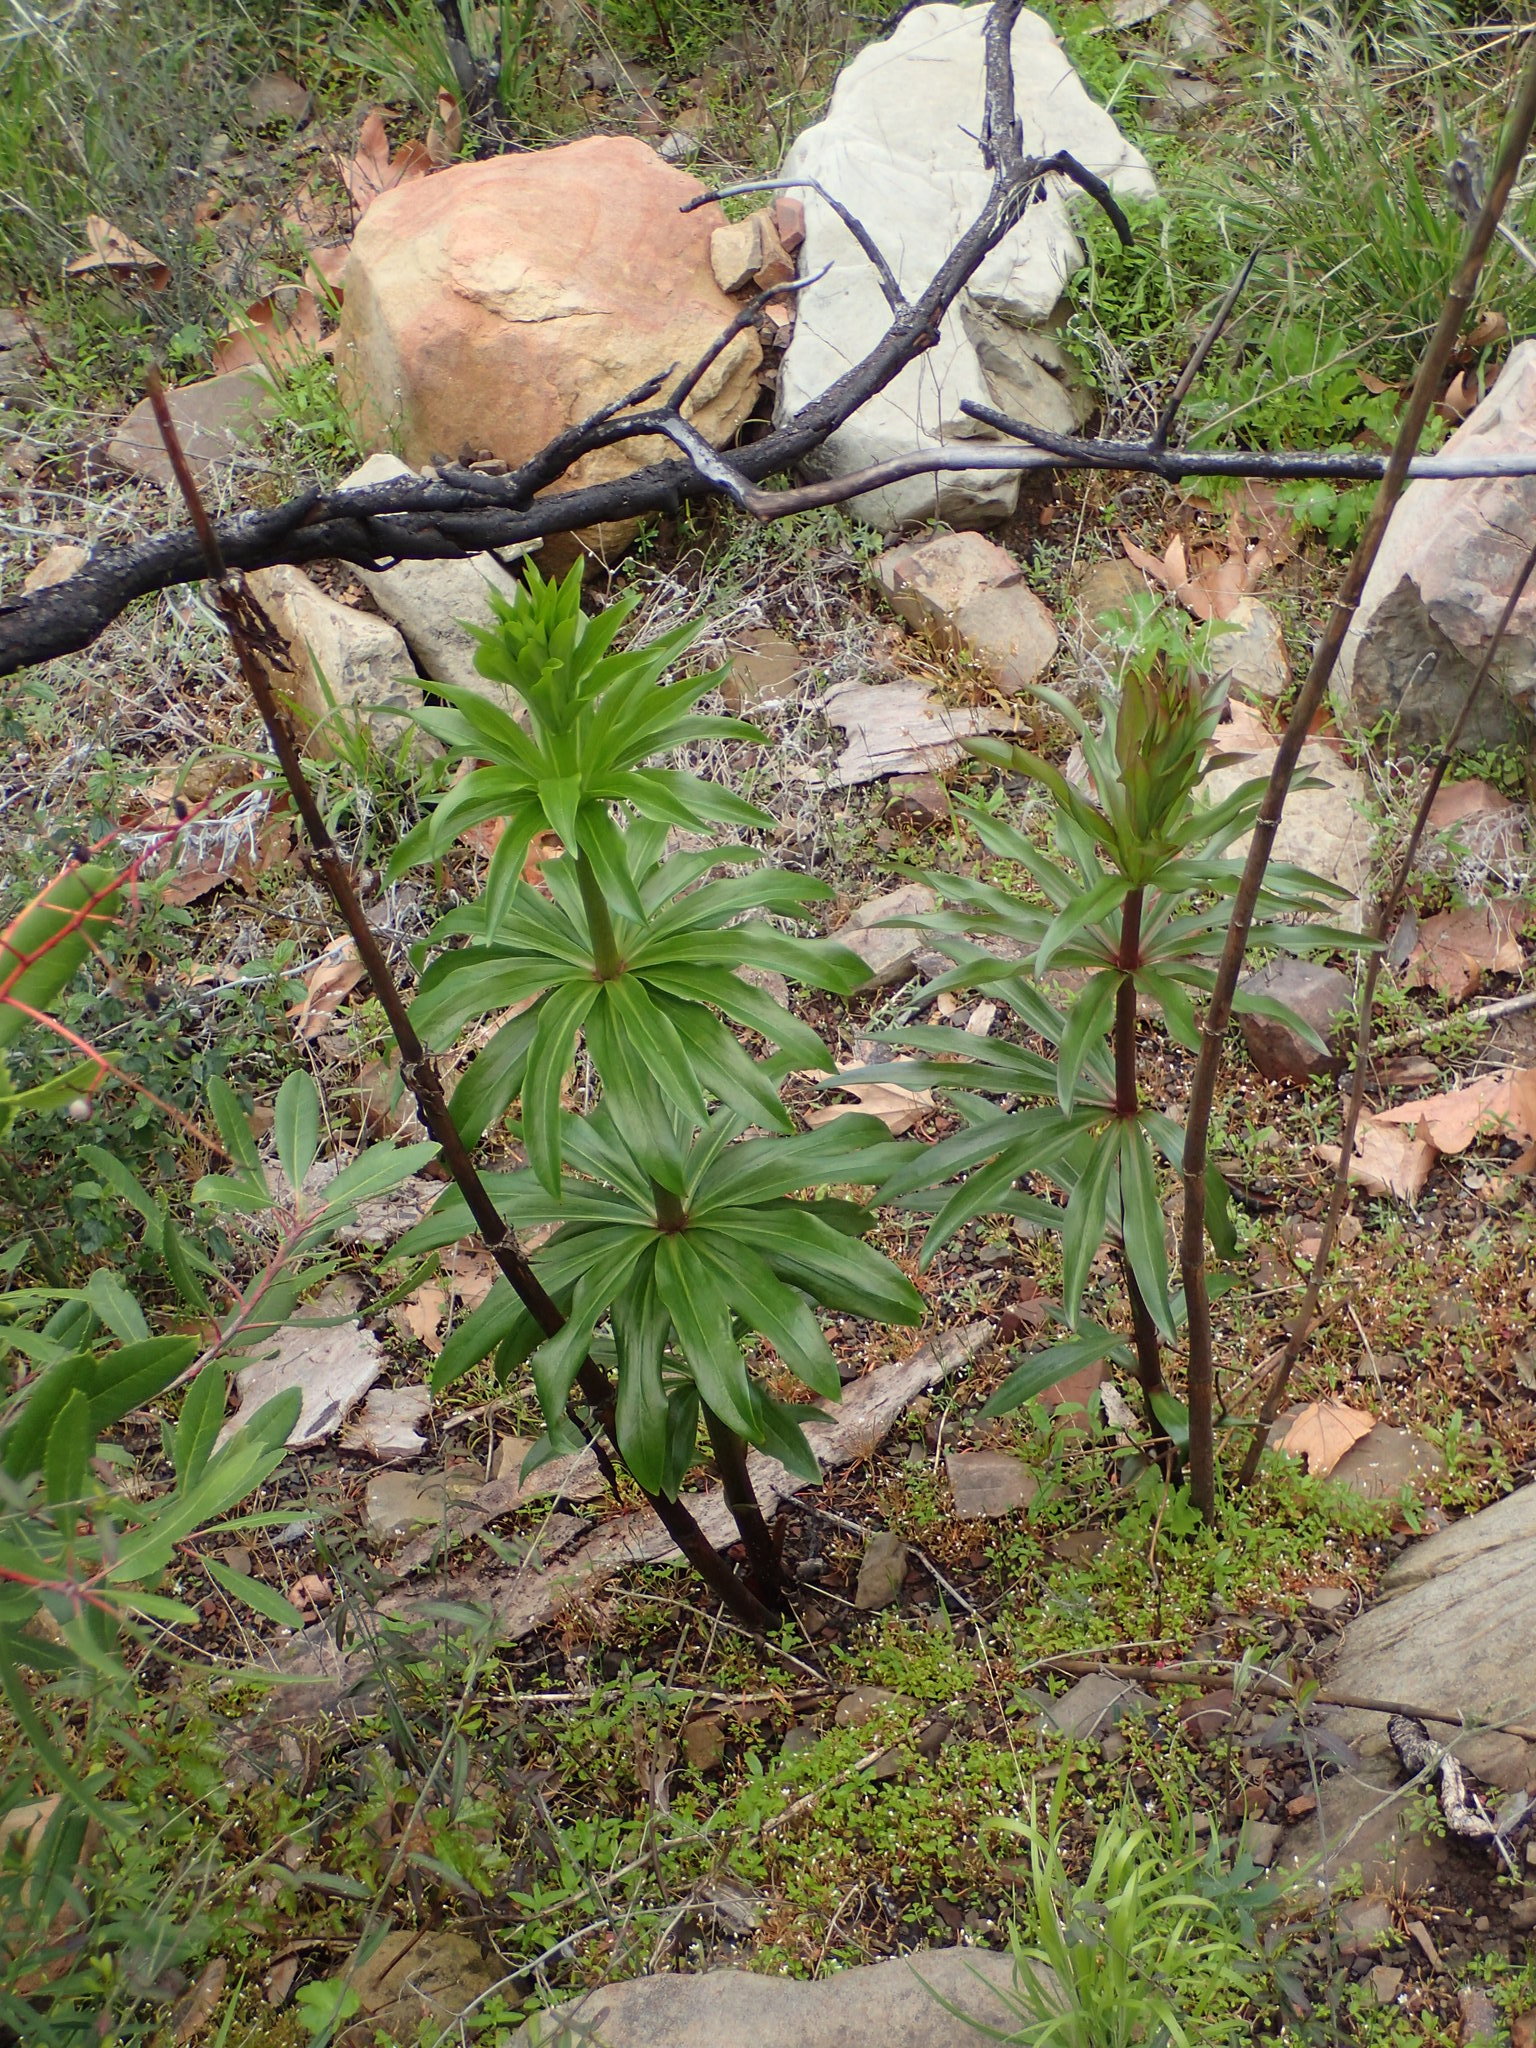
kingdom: Plantae
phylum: Tracheophyta
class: Liliopsida
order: Liliales
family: Liliaceae
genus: Lilium
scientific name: Lilium humboldtii
